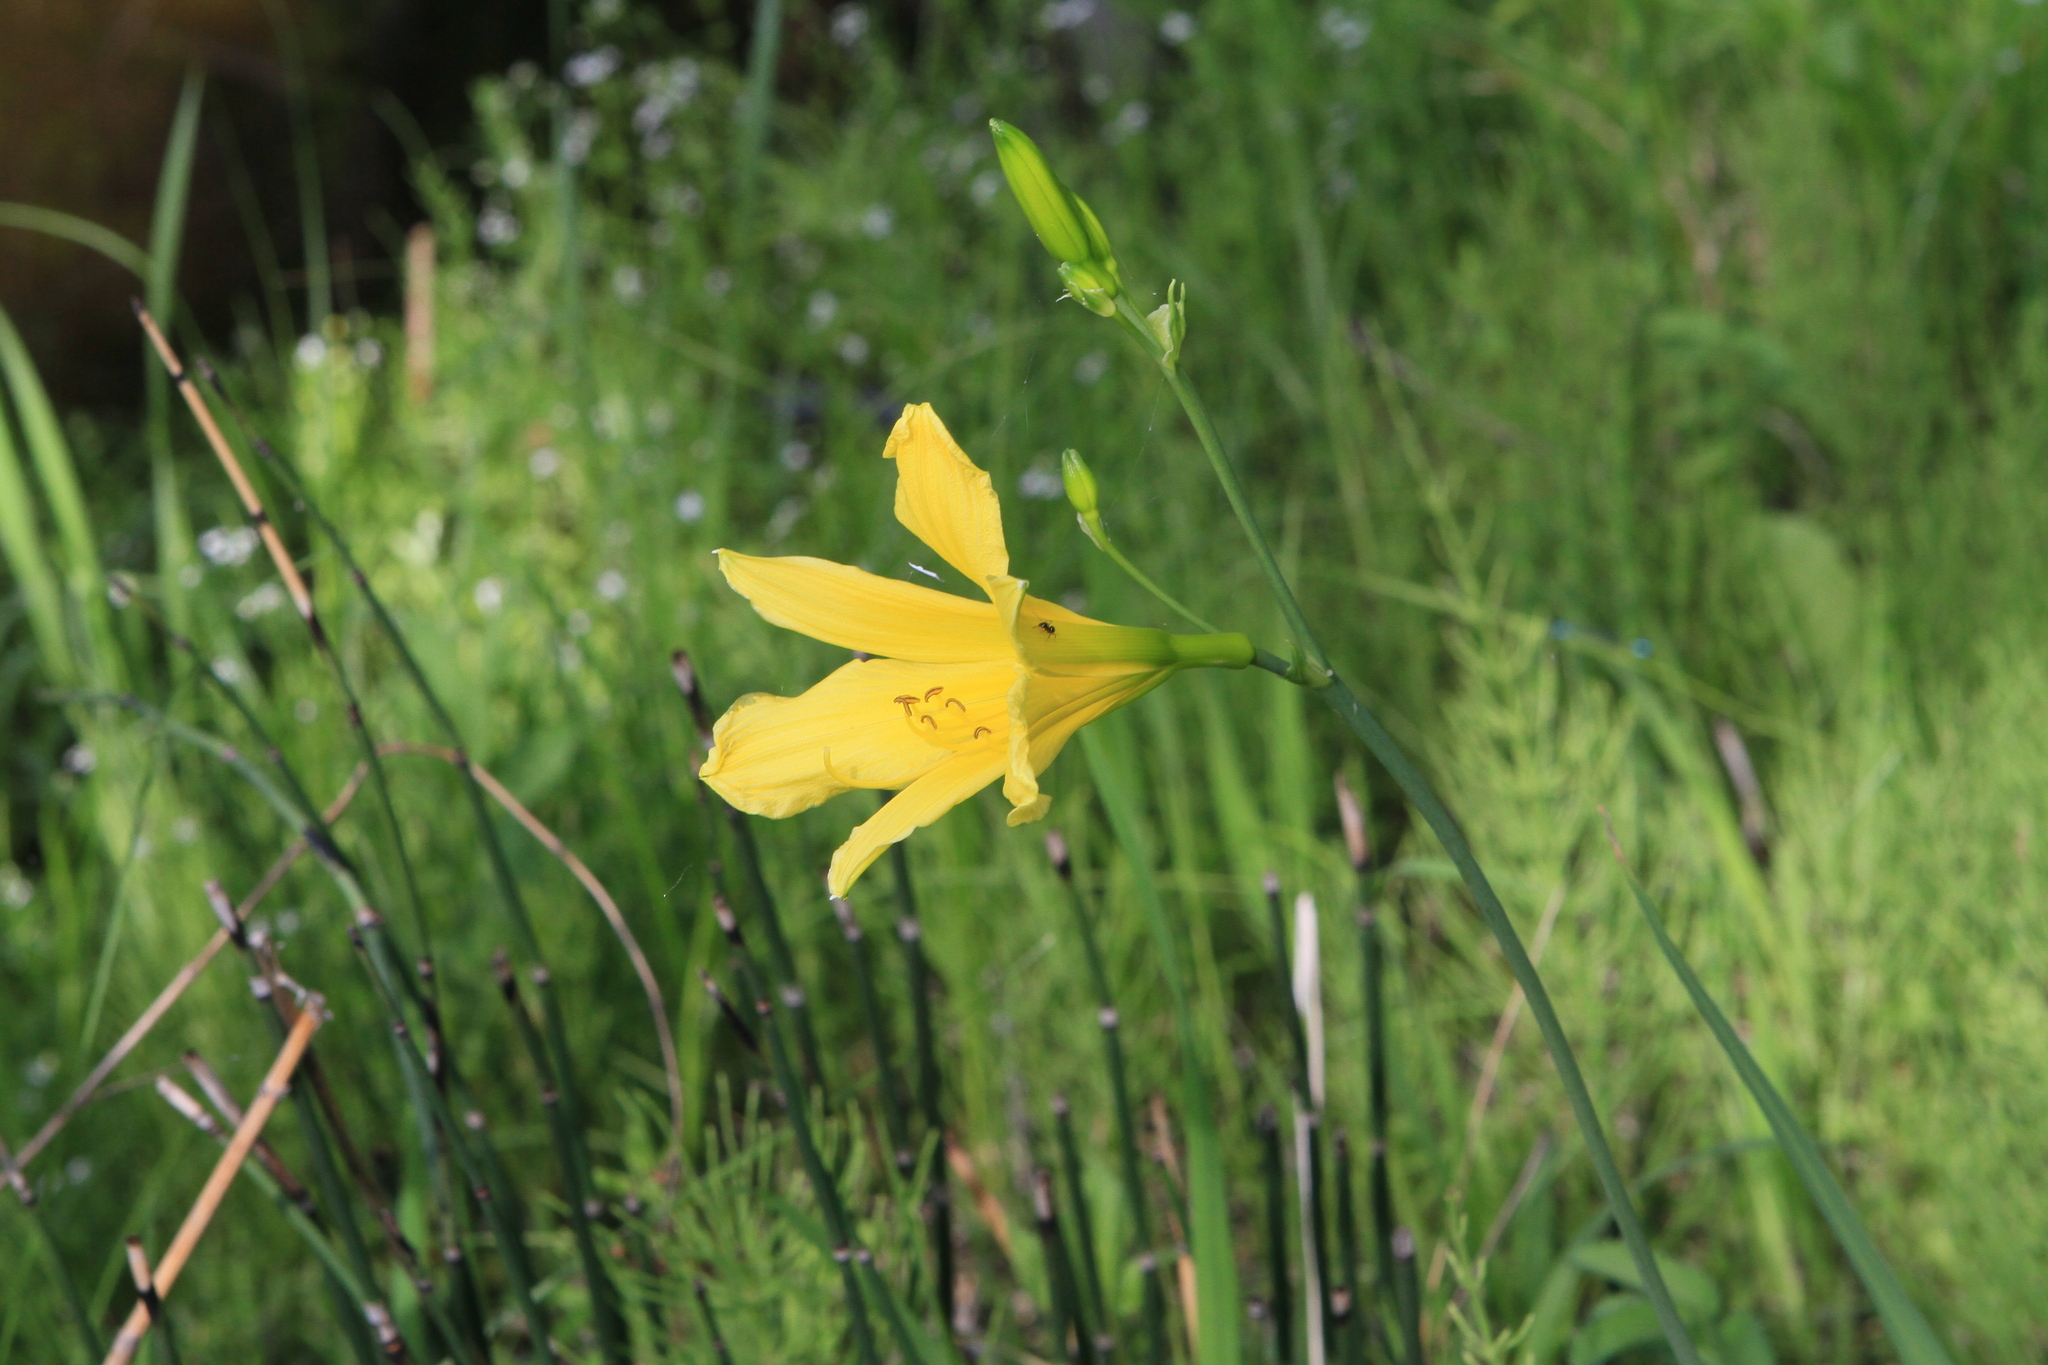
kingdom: Plantae
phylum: Tracheophyta
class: Liliopsida
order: Asparagales
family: Asphodelaceae
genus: Hemerocallis
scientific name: Hemerocallis minor
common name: Small daylily
